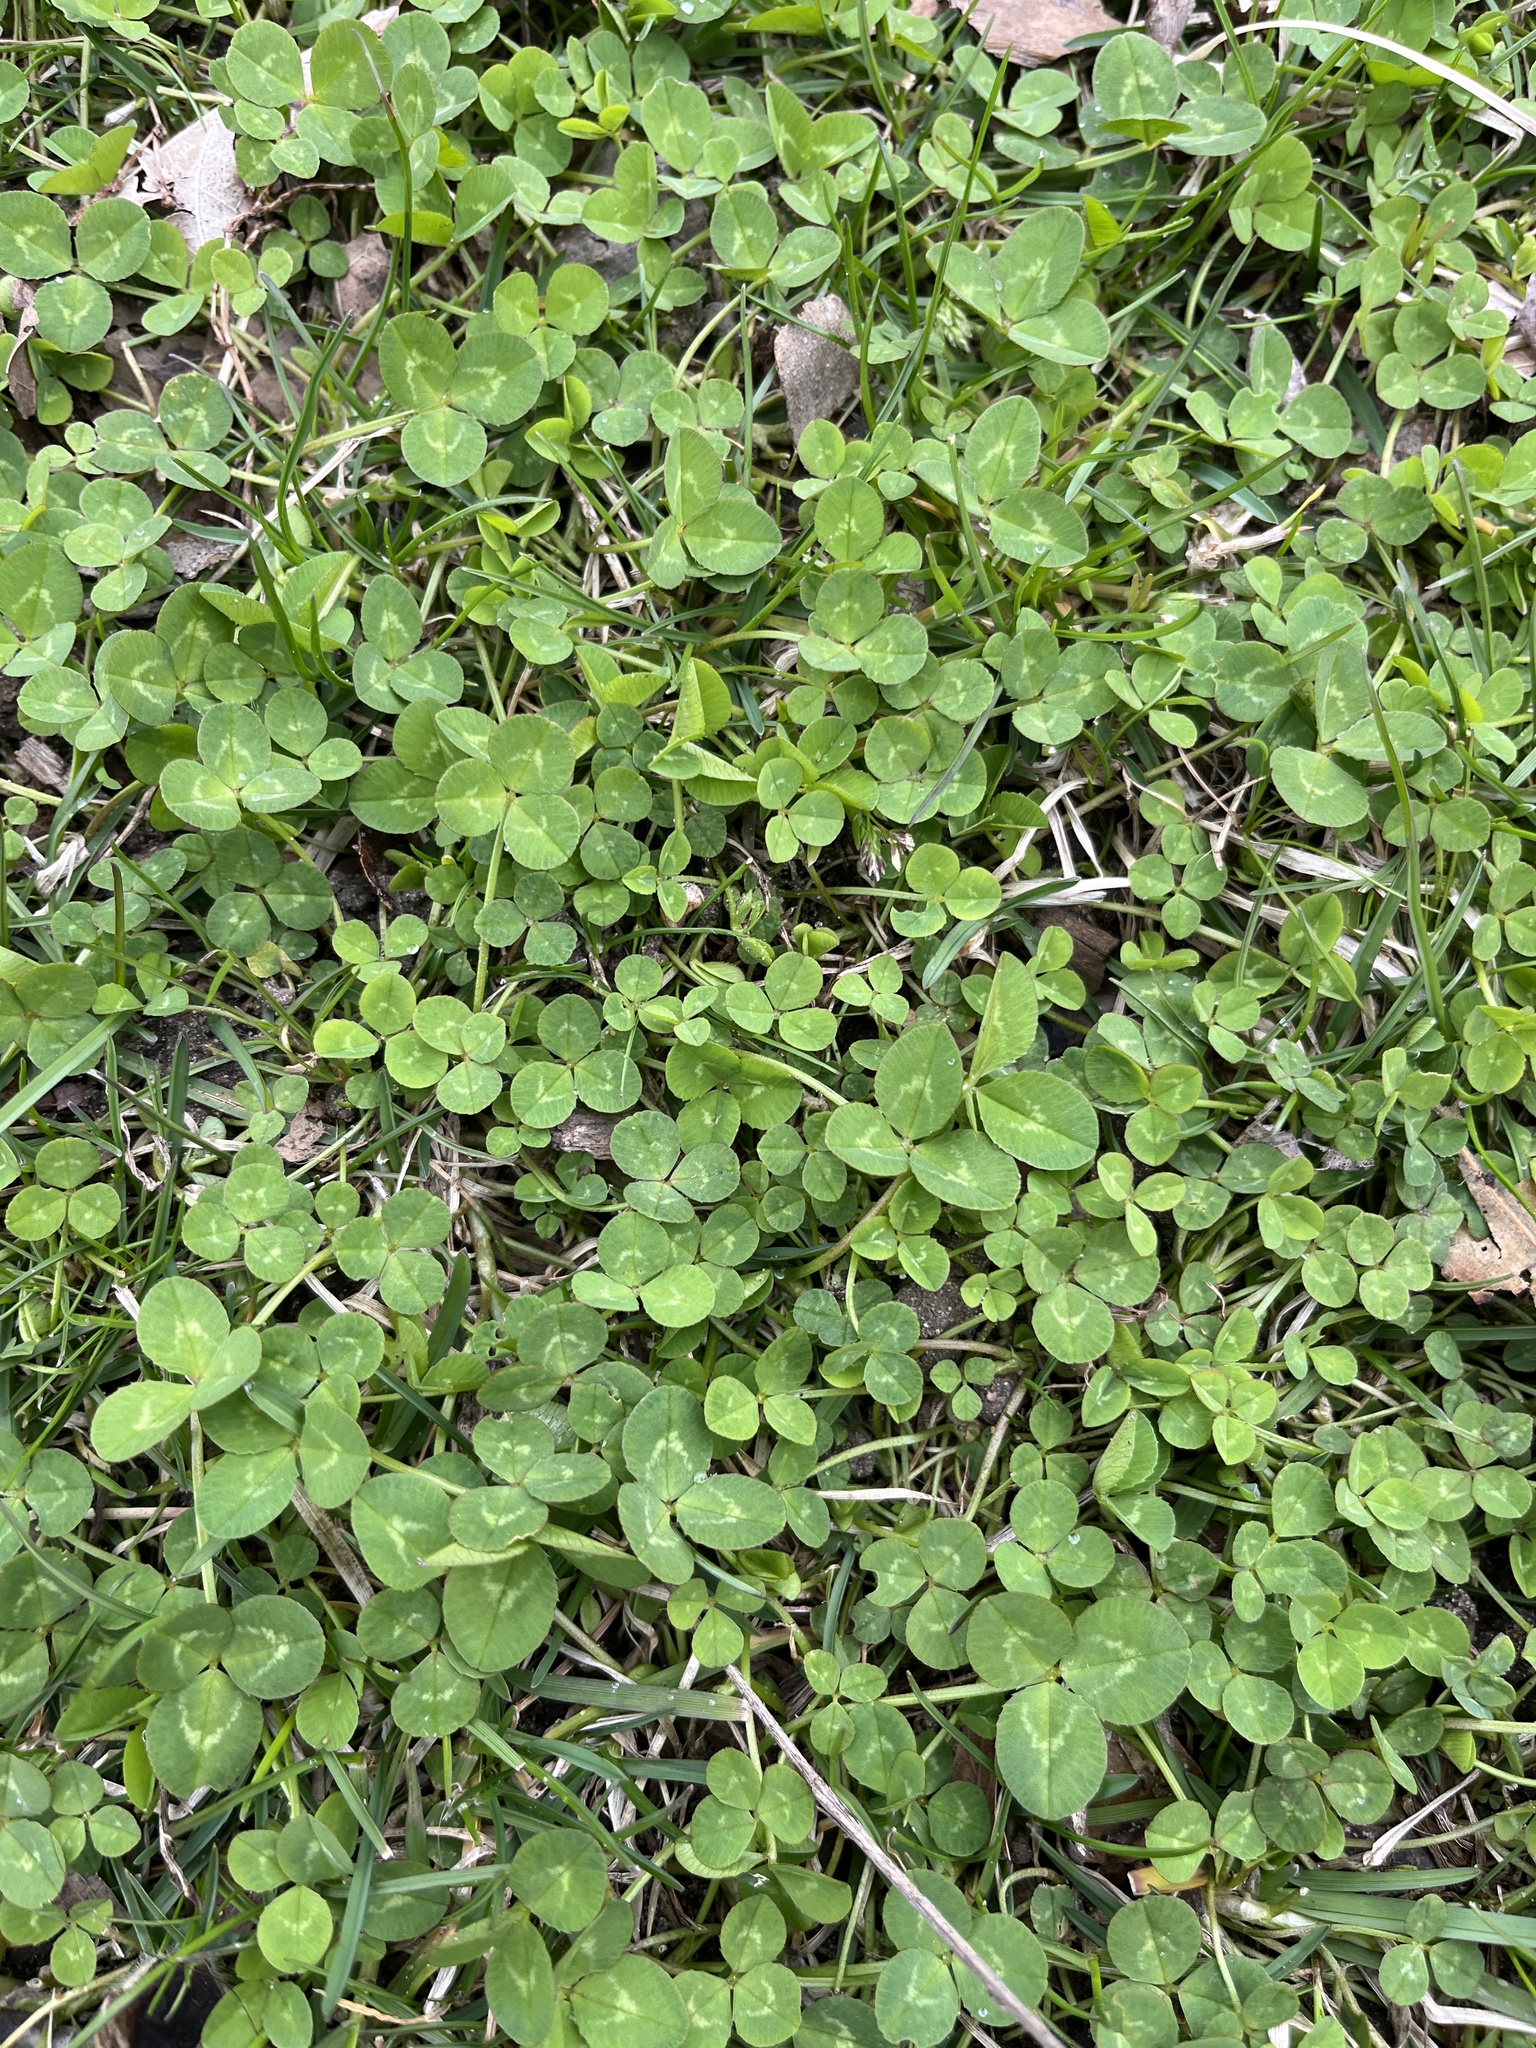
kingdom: Plantae
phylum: Tracheophyta
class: Magnoliopsida
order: Fabales
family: Fabaceae
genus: Trifolium
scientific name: Trifolium repens
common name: White clover
